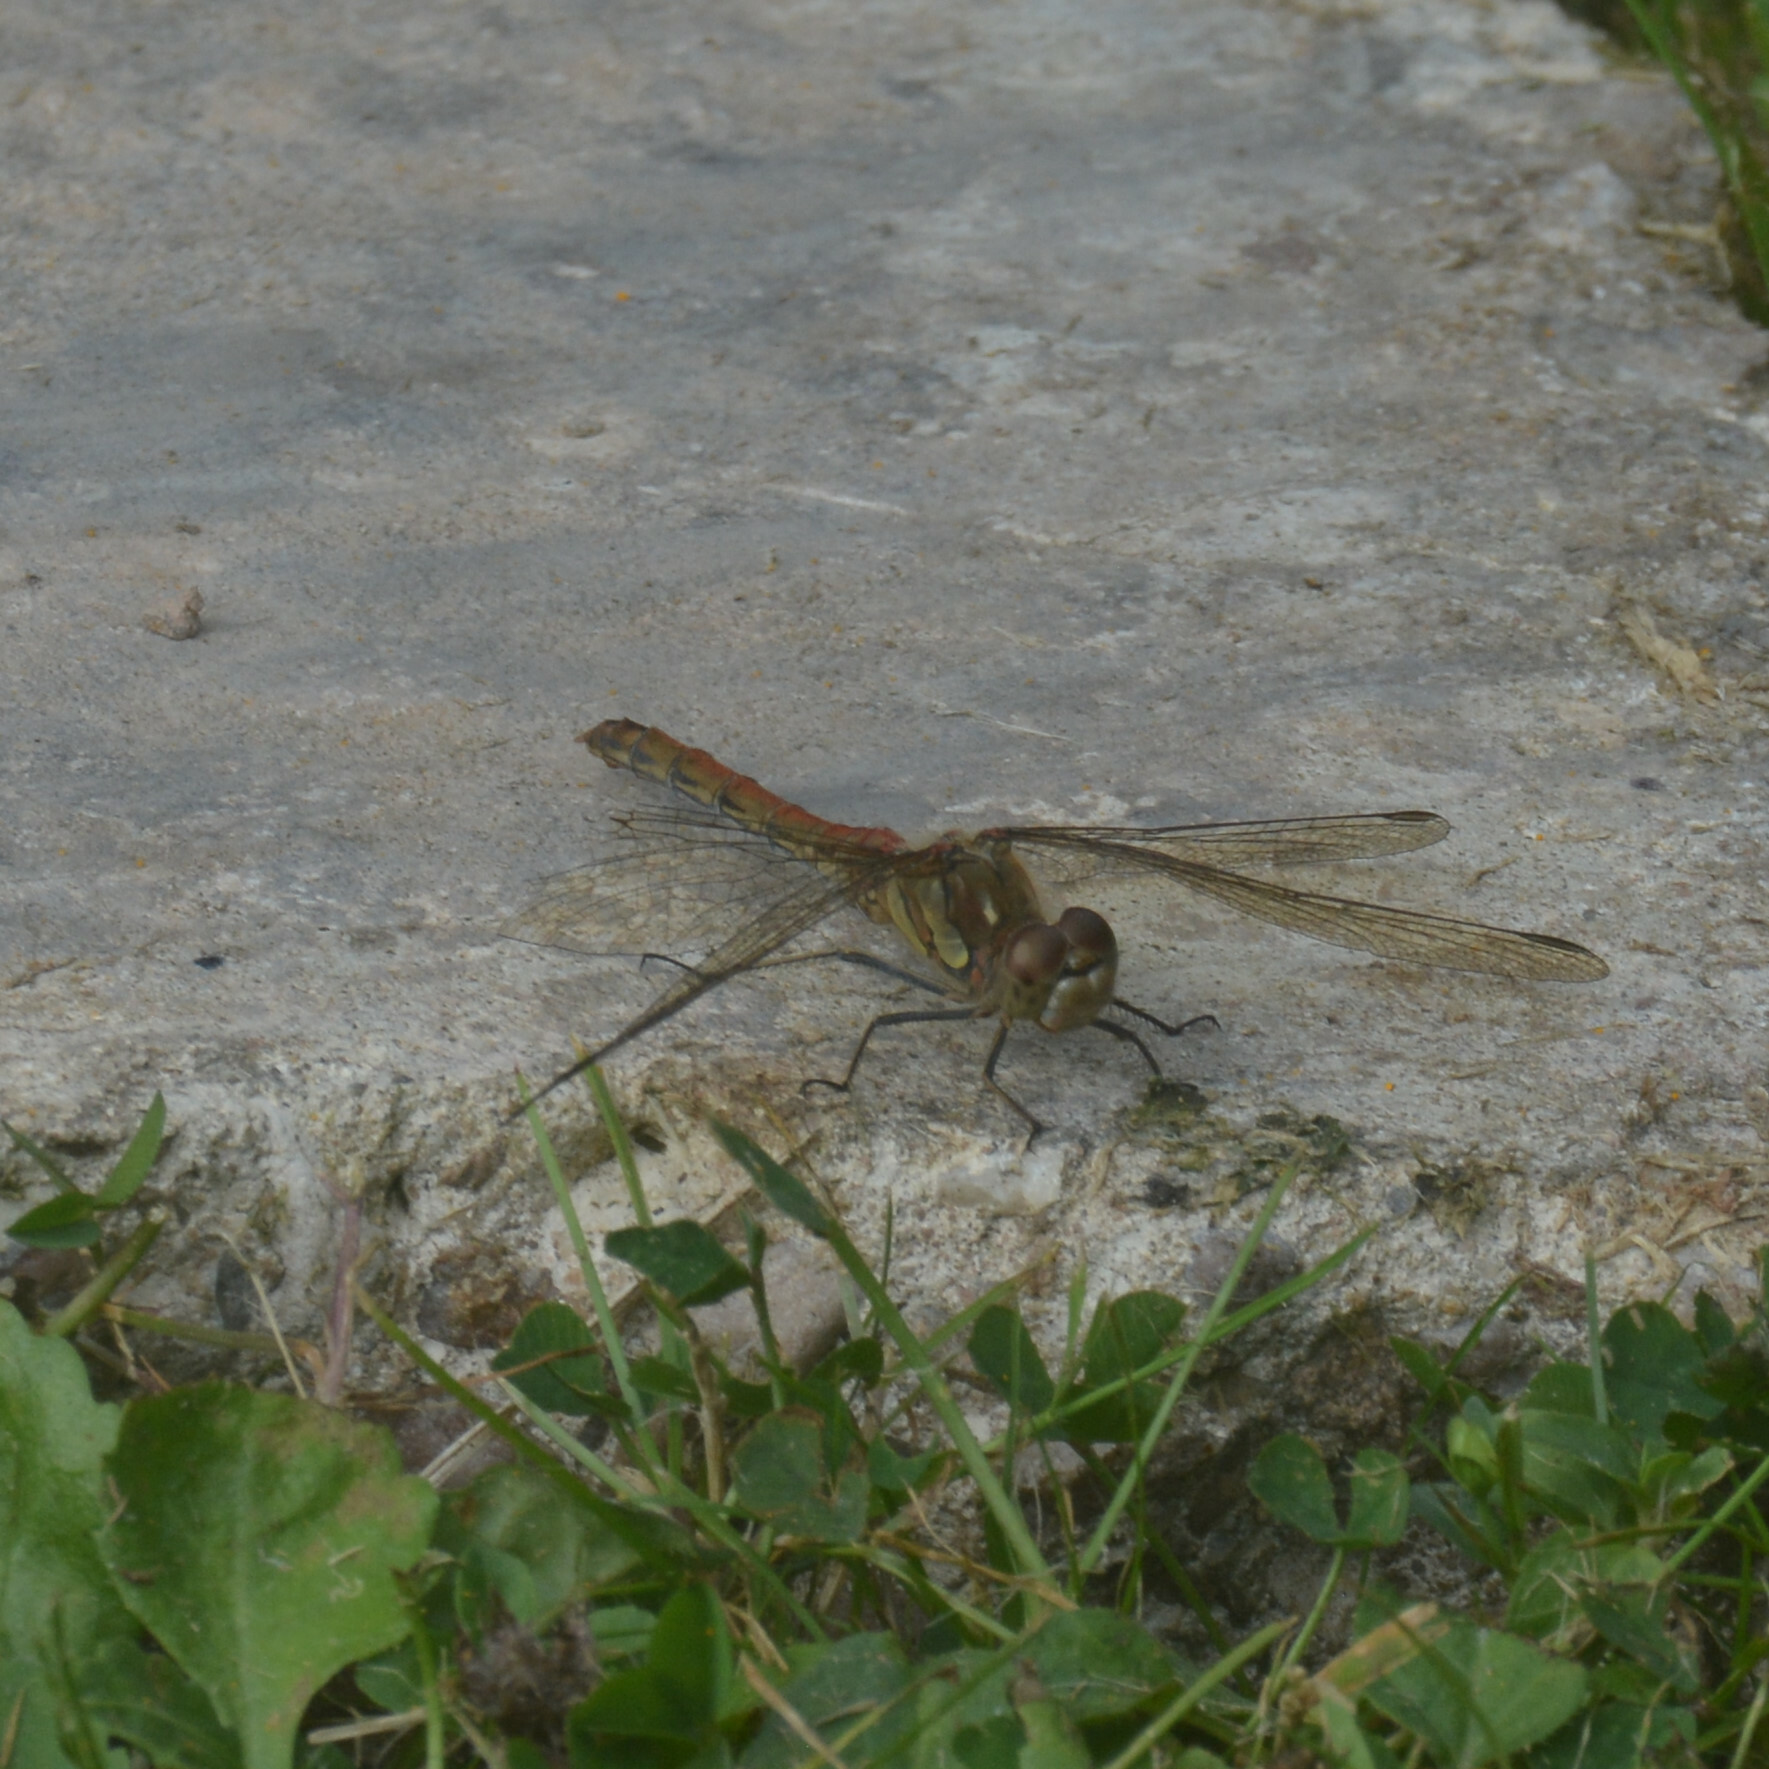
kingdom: Animalia
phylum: Arthropoda
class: Insecta
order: Odonata
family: Libellulidae
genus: Sympetrum
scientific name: Sympetrum striolatum
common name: Common darter
